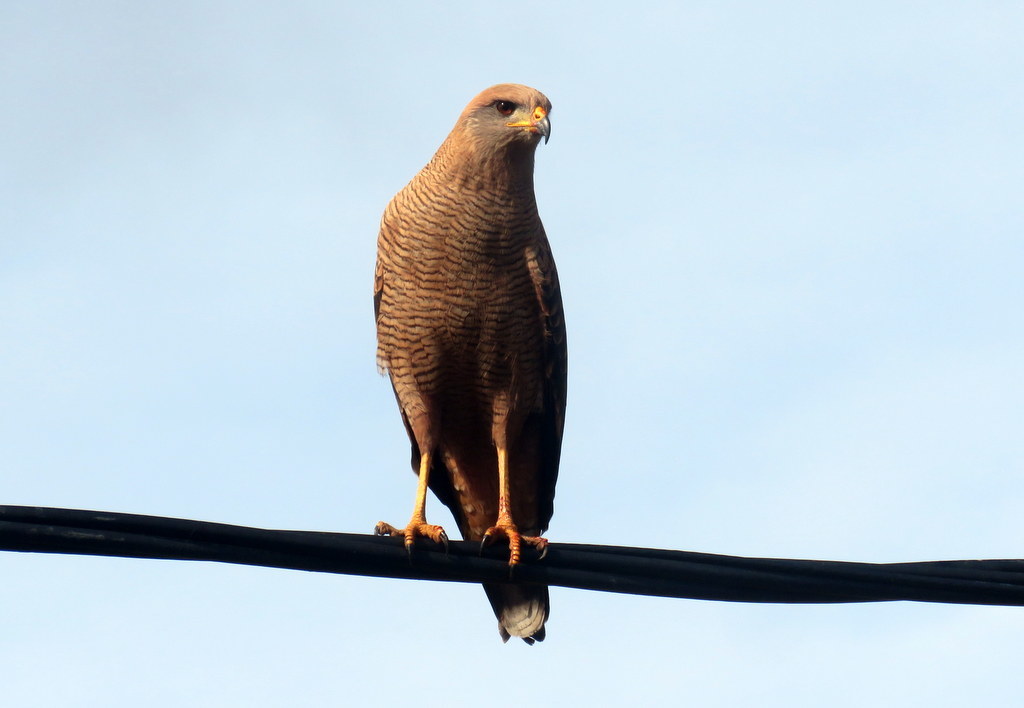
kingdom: Animalia
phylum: Chordata
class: Aves
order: Accipitriformes
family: Accipitridae
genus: Buteogallus
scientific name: Buteogallus meridionalis
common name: Savanna hawk
